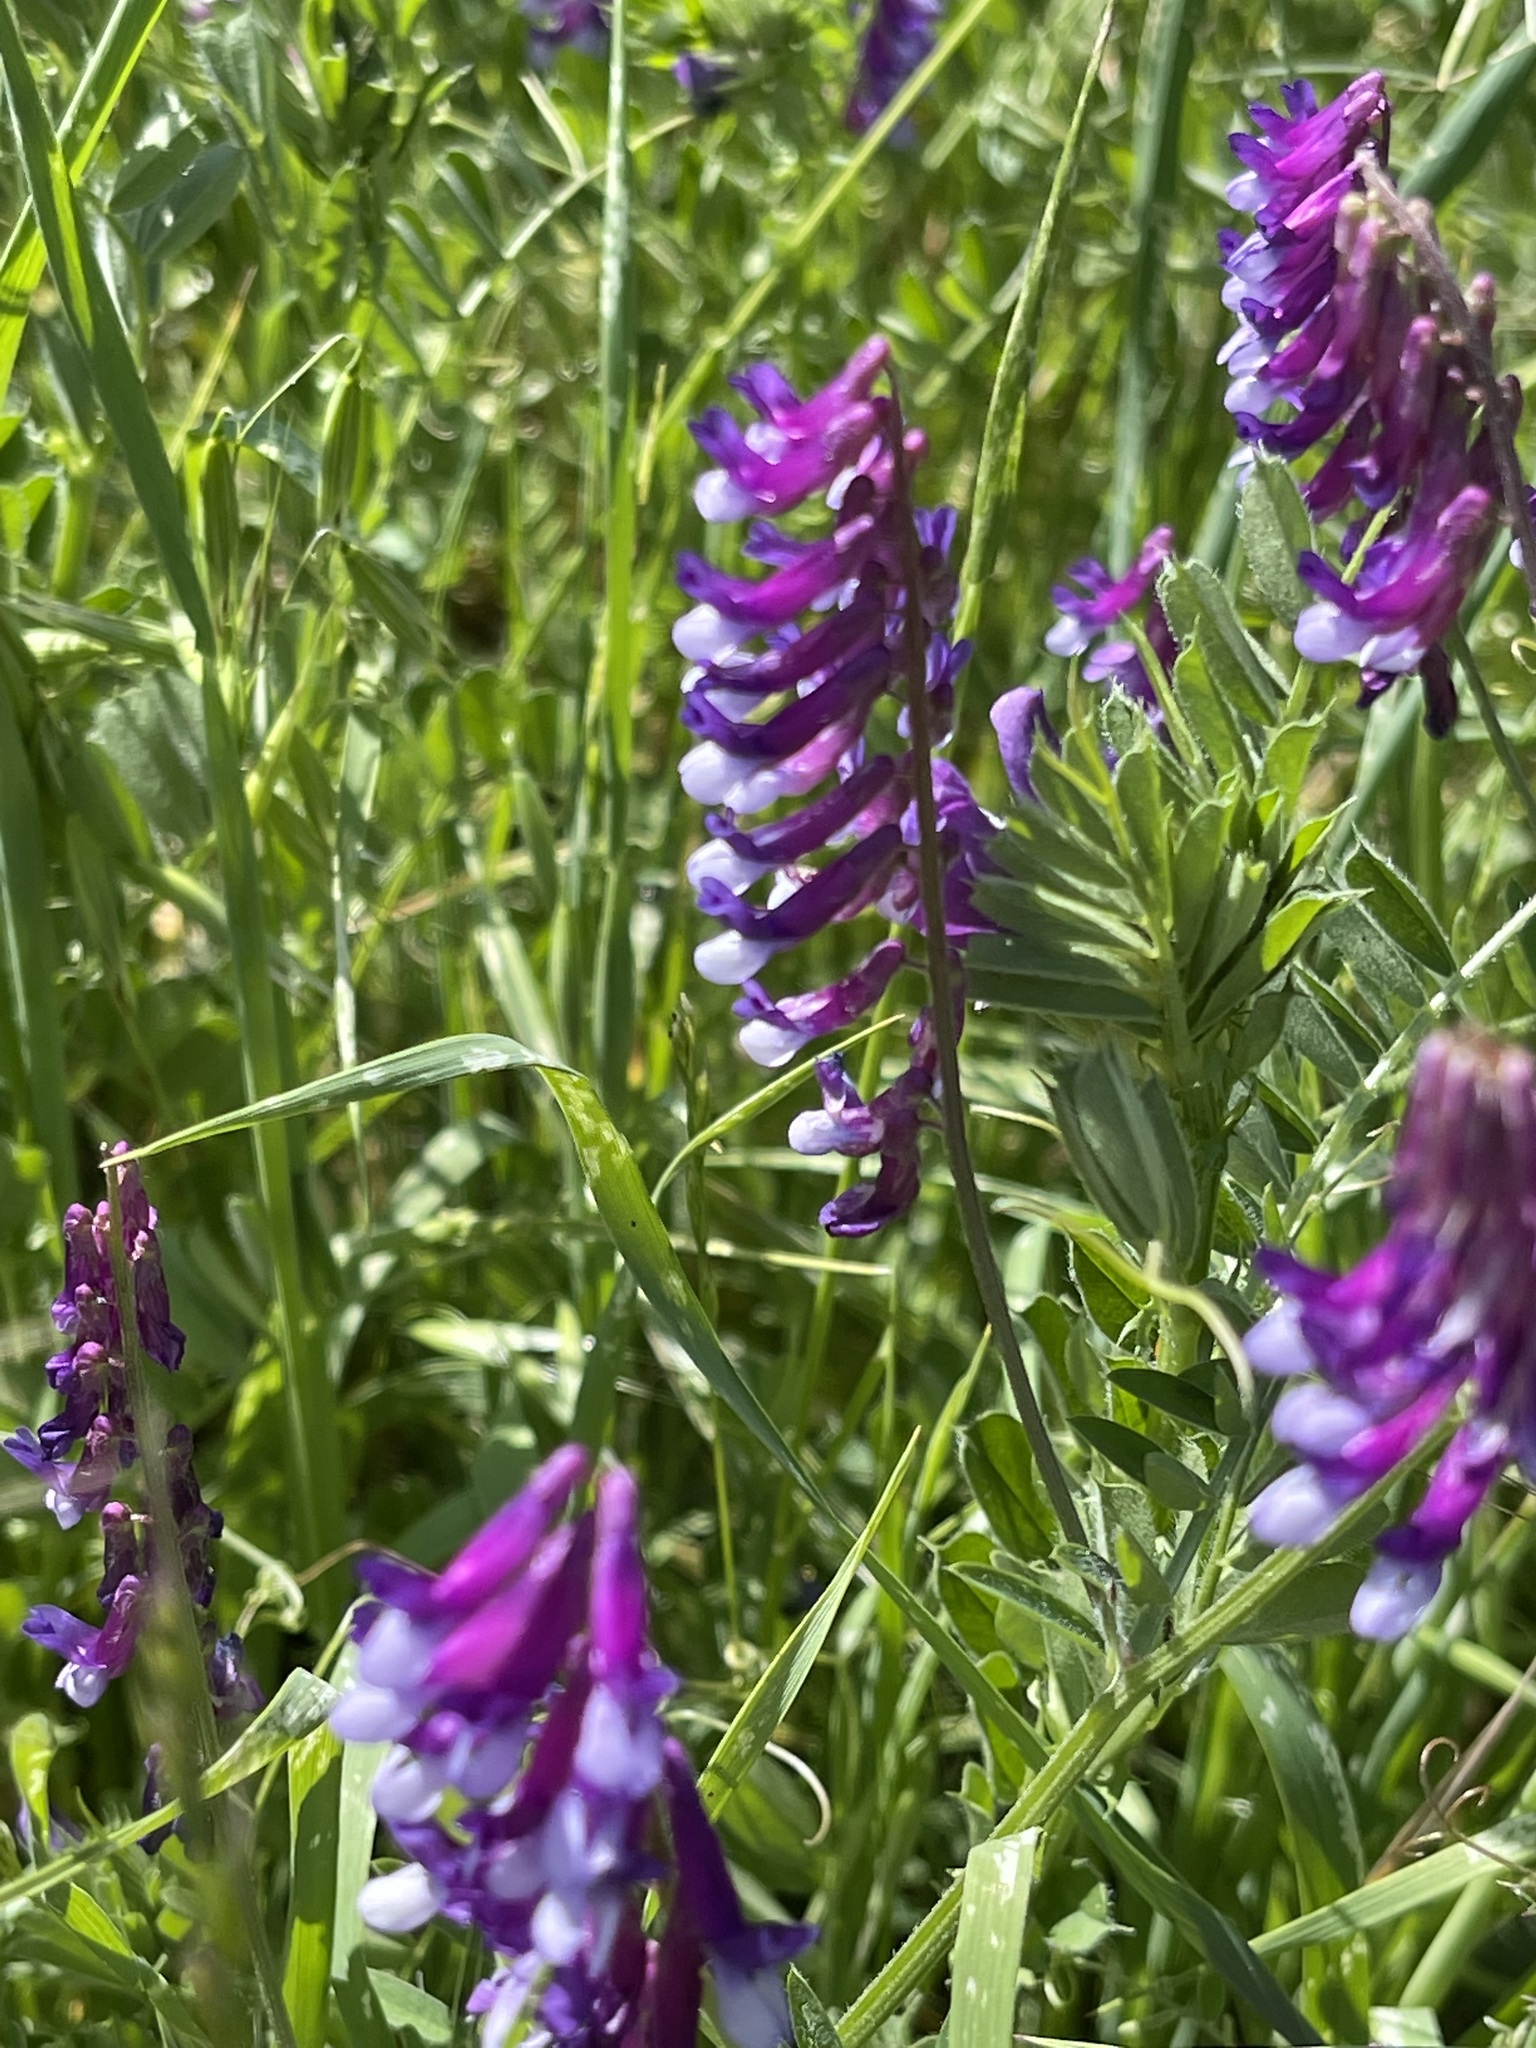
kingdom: Plantae
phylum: Tracheophyta
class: Magnoliopsida
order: Fabales
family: Fabaceae
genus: Vicia
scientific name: Vicia villosa
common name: Fodder vetch
